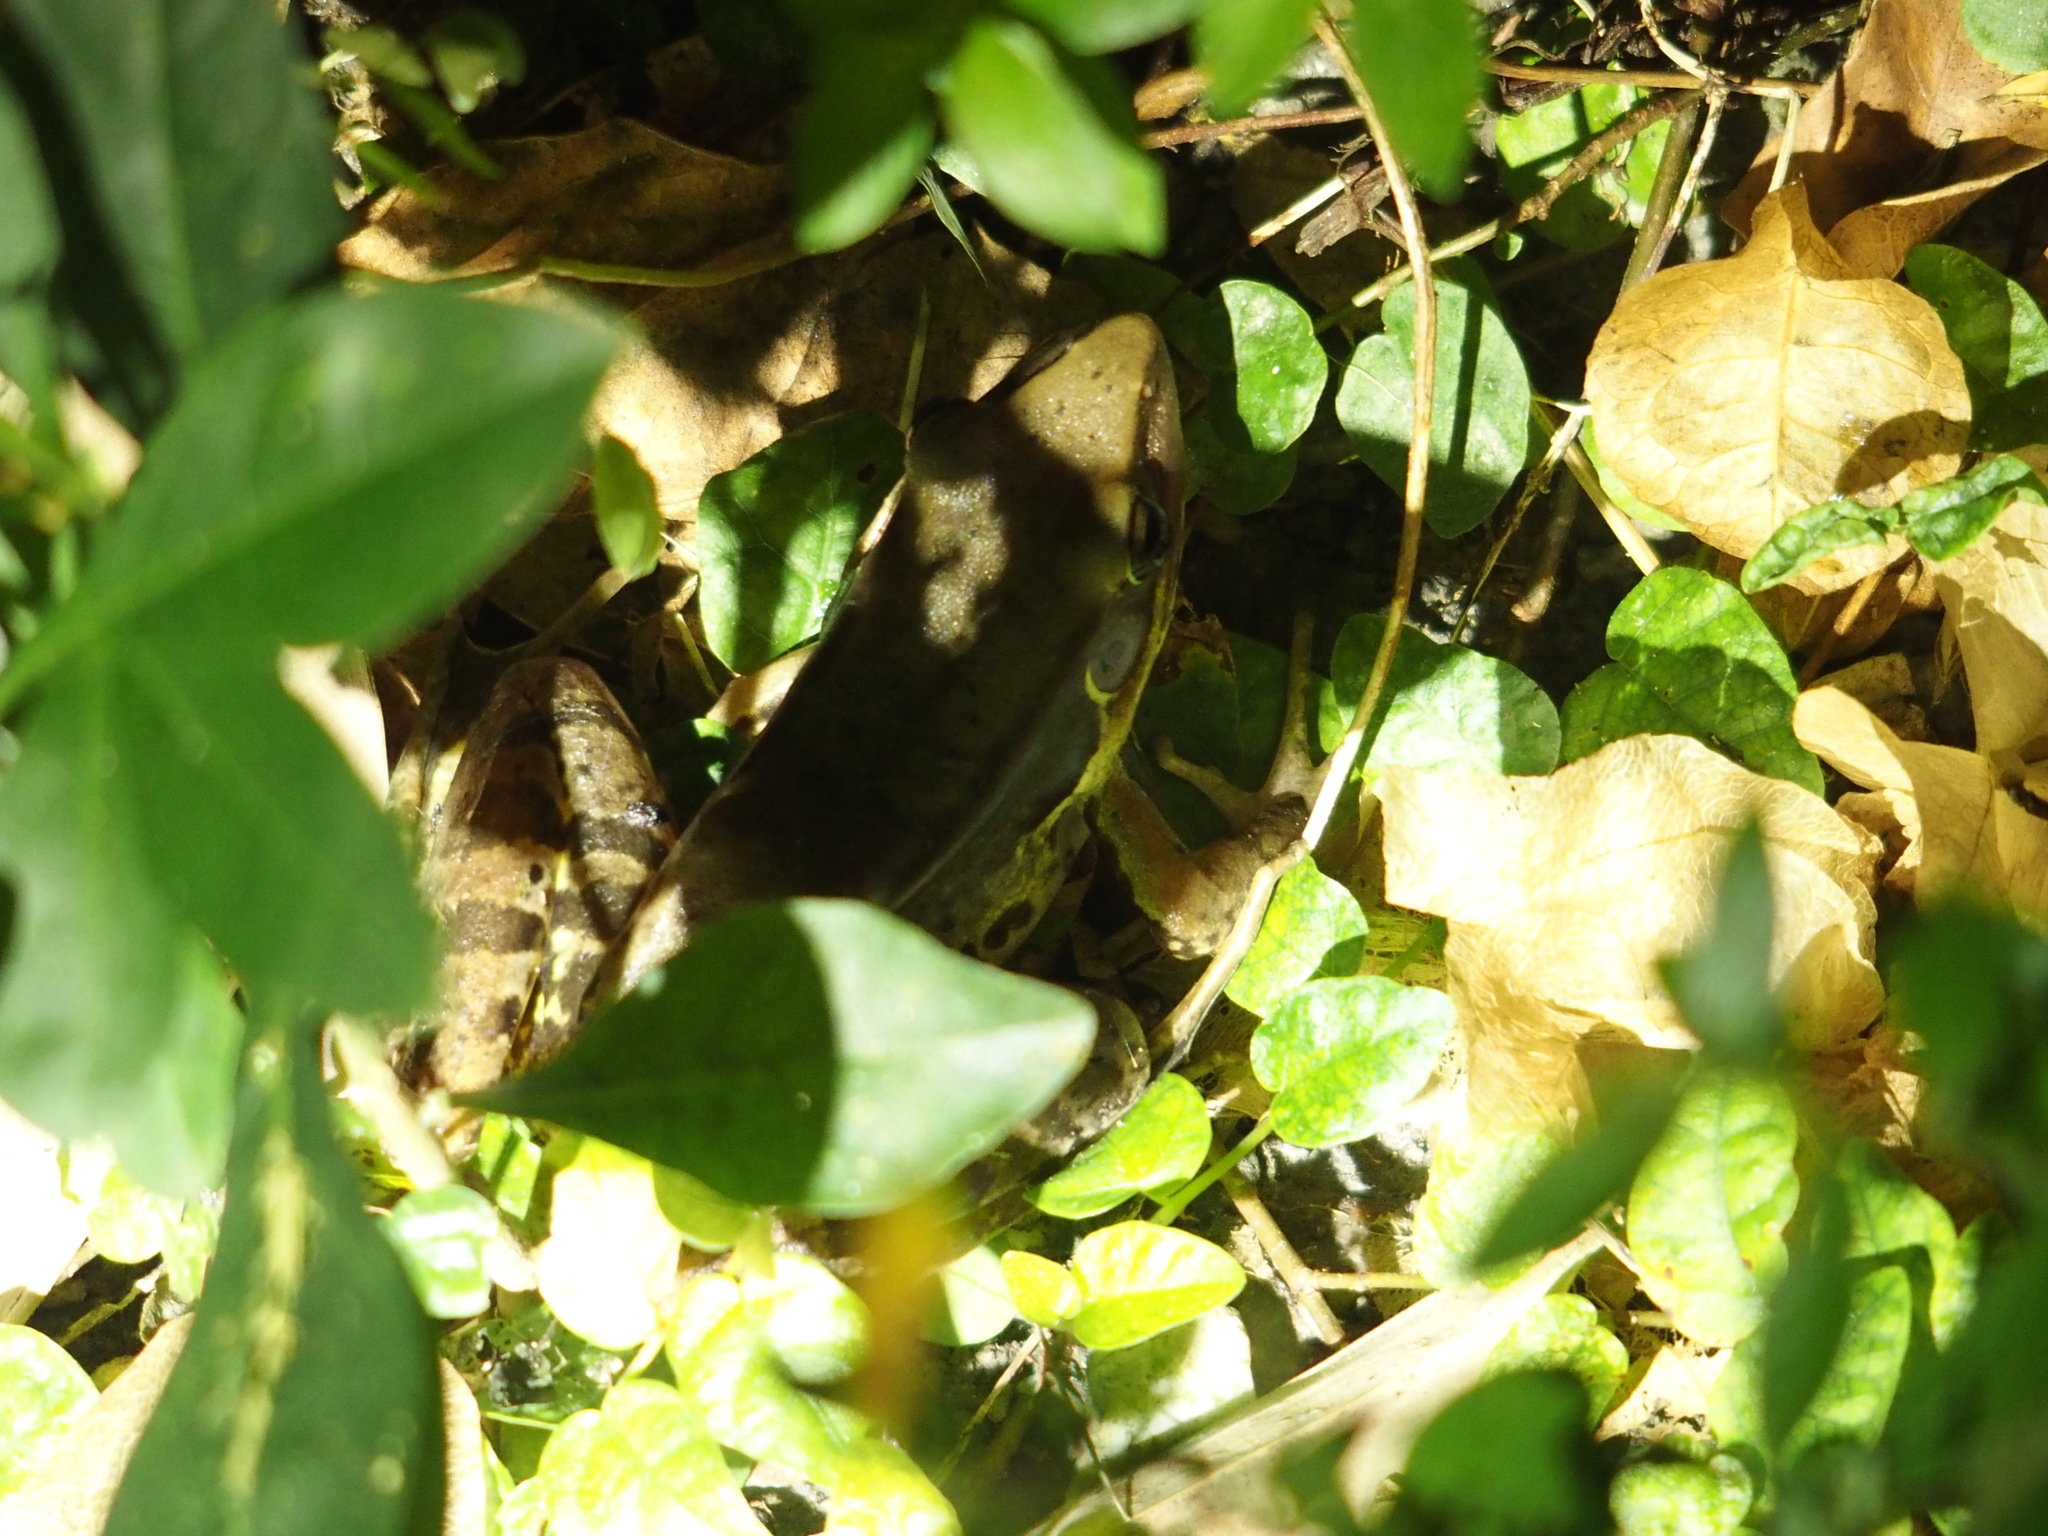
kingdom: Animalia
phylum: Chordata
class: Amphibia
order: Anura
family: Ranidae
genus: Sylvirana
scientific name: Sylvirana guentheri
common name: Guenther's amoy frog
